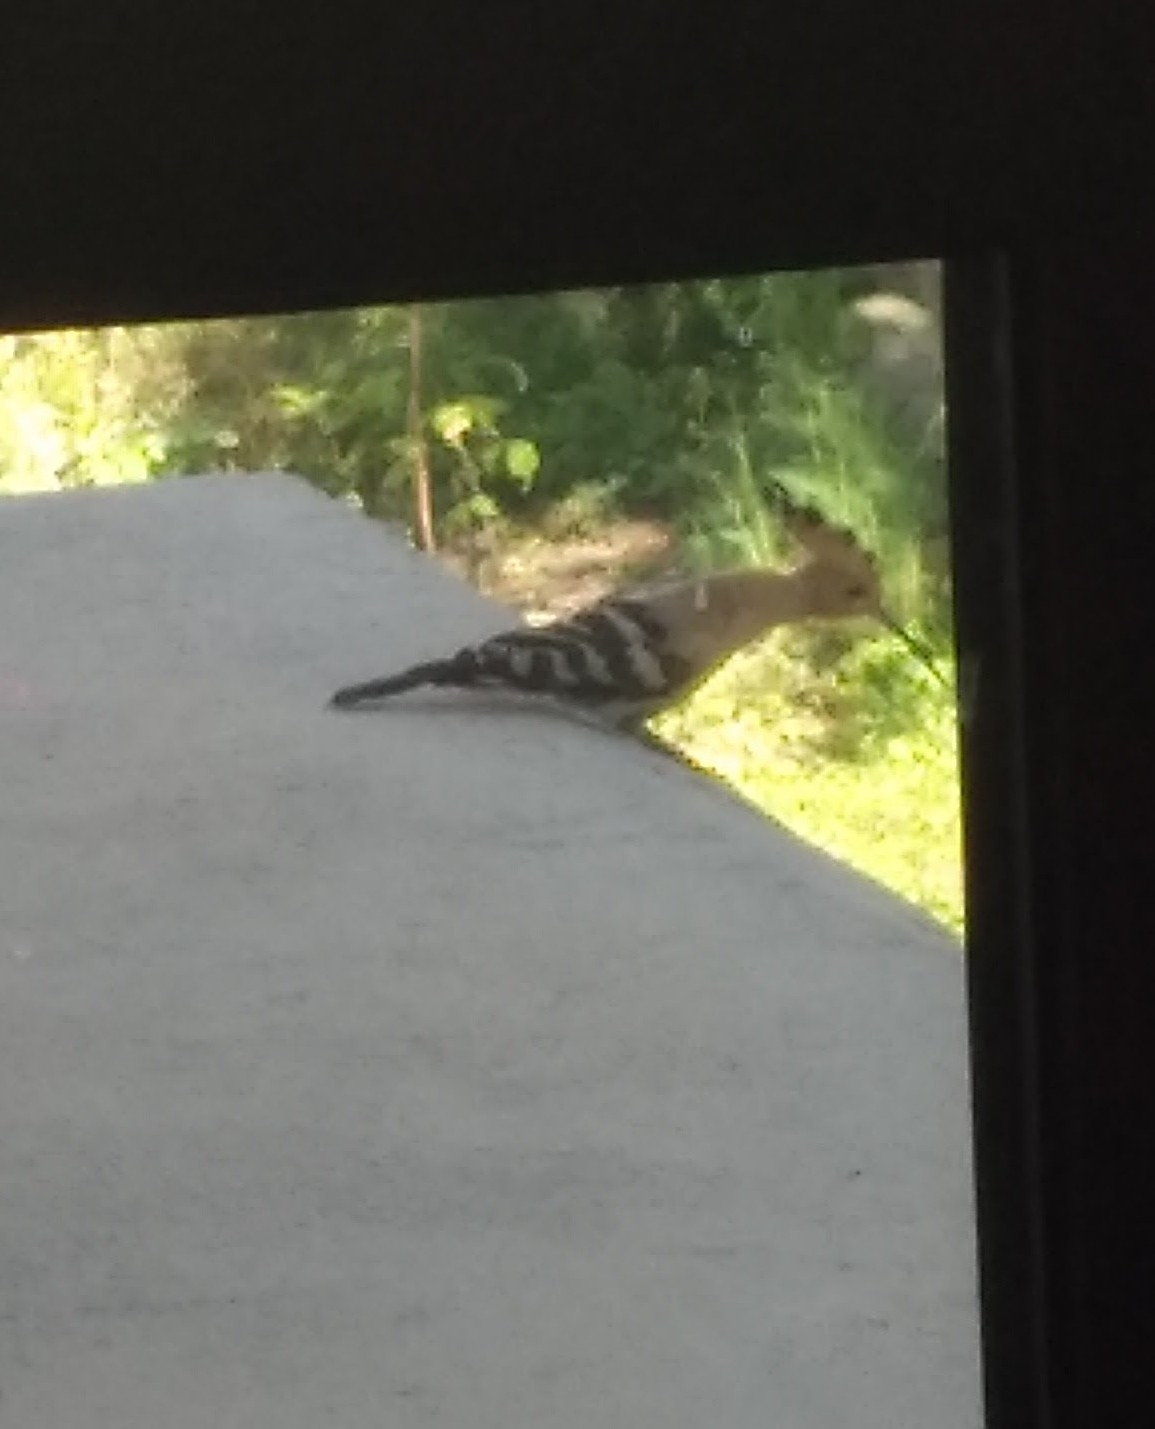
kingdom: Animalia
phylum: Chordata
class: Aves
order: Bucerotiformes
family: Upupidae
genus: Upupa
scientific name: Upupa epops
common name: Eurasian hoopoe
